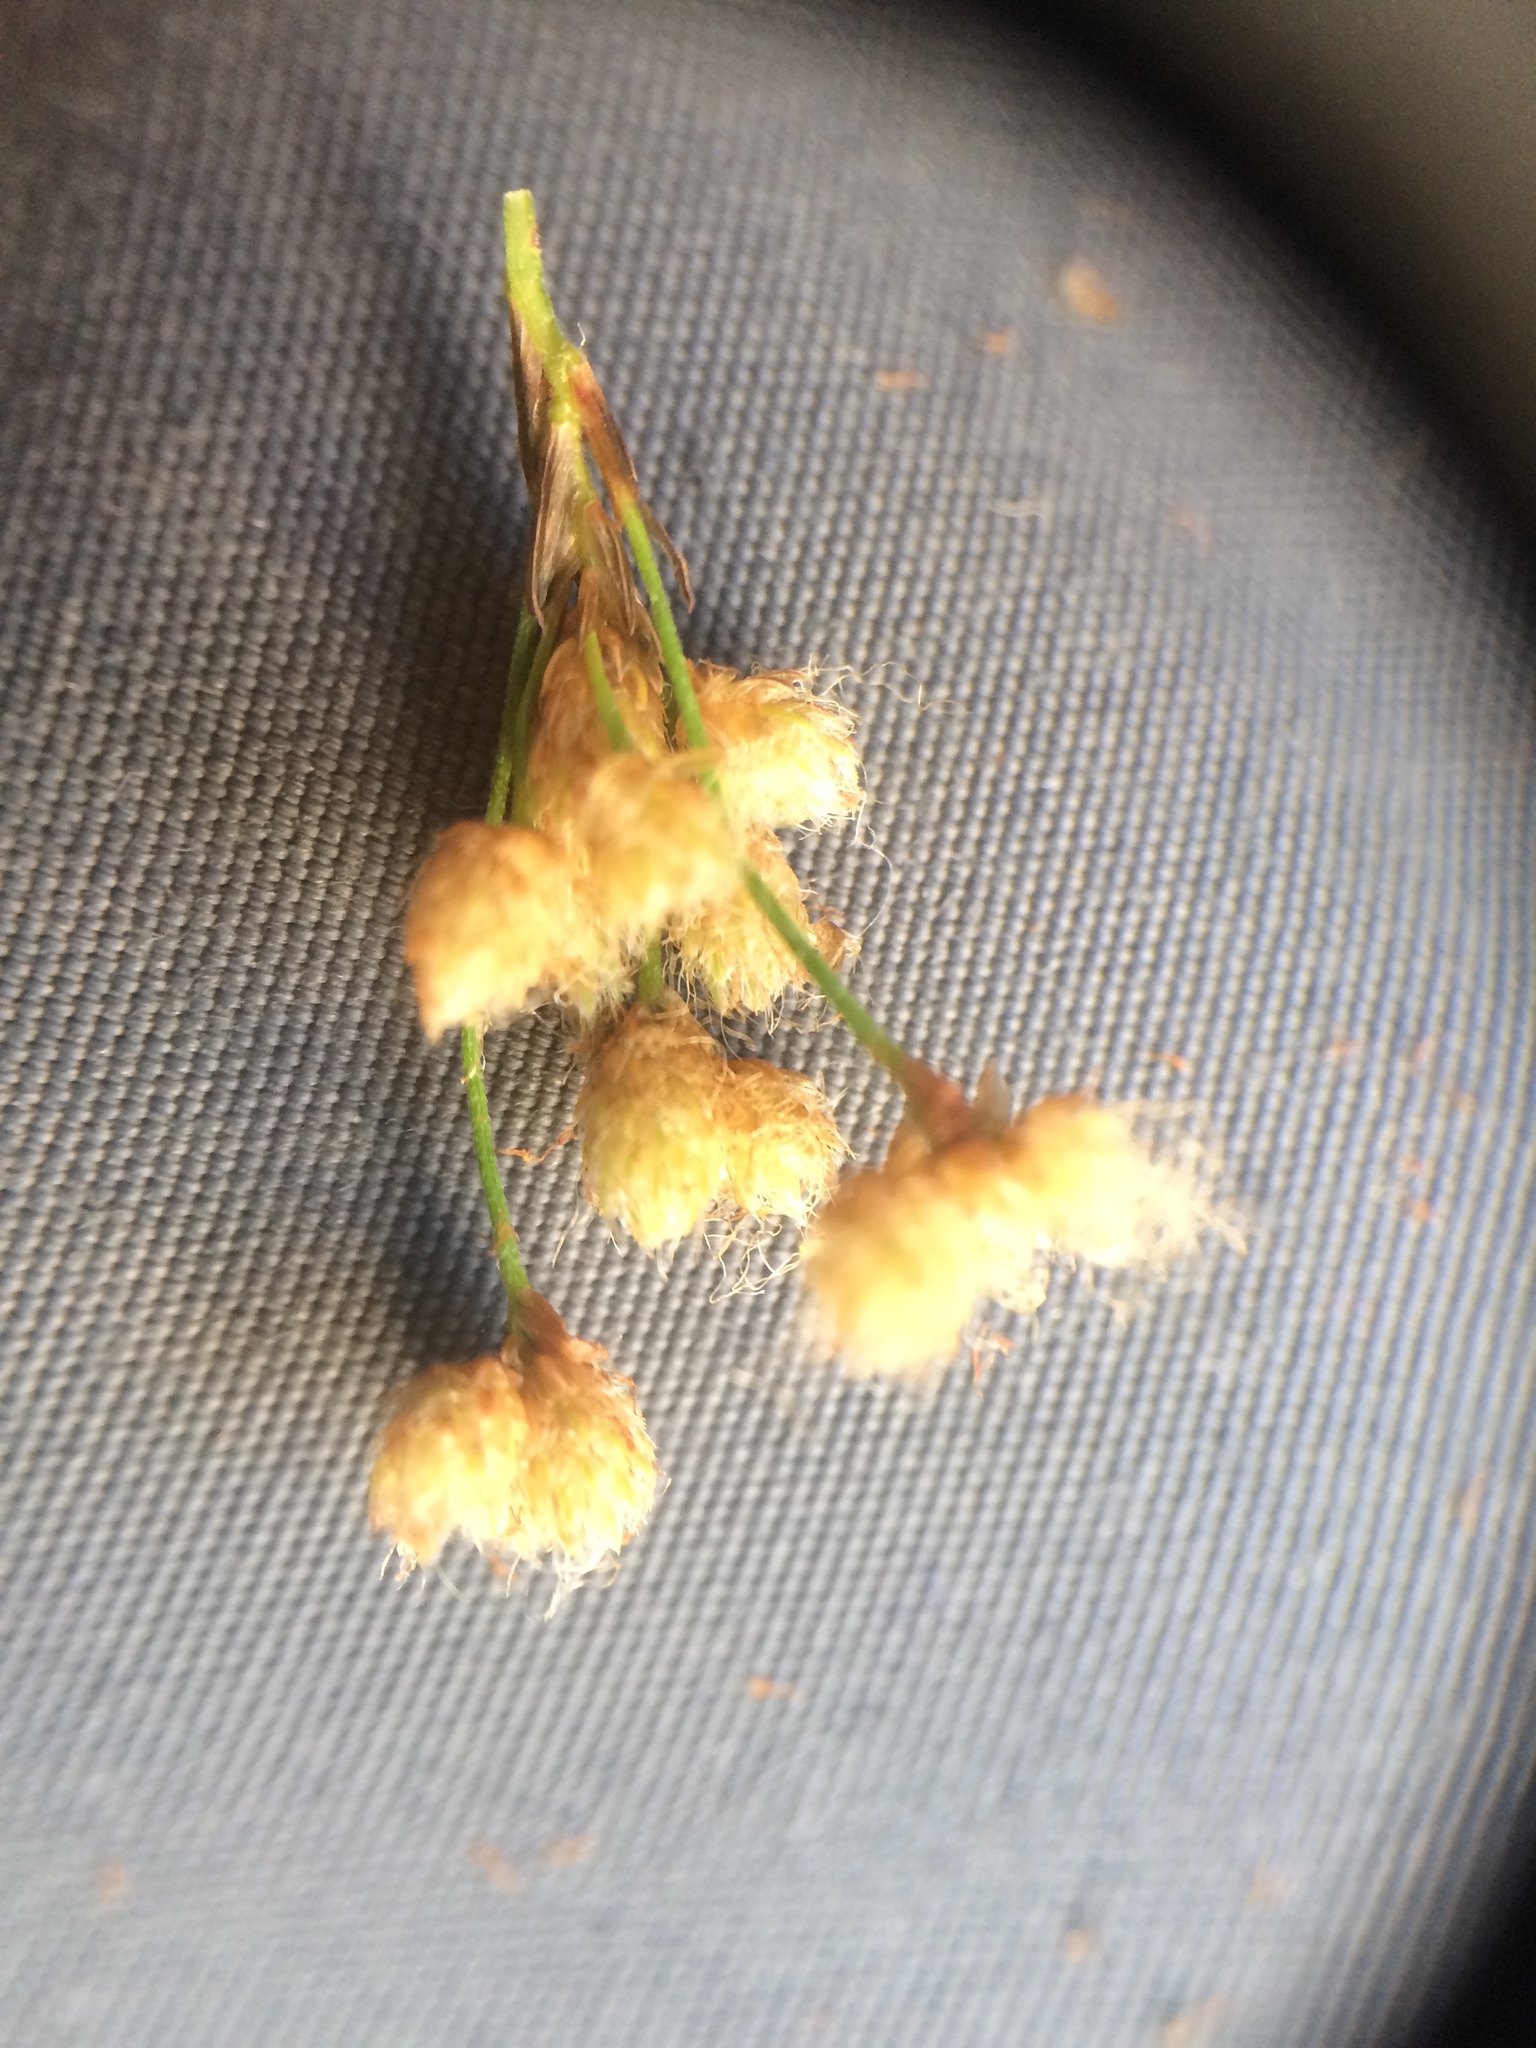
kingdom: Plantae
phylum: Tracheophyta
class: Liliopsida
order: Poales
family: Cyperaceae
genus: Scirpus
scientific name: Scirpus cyperinus
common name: Black-sheathed bulrush
